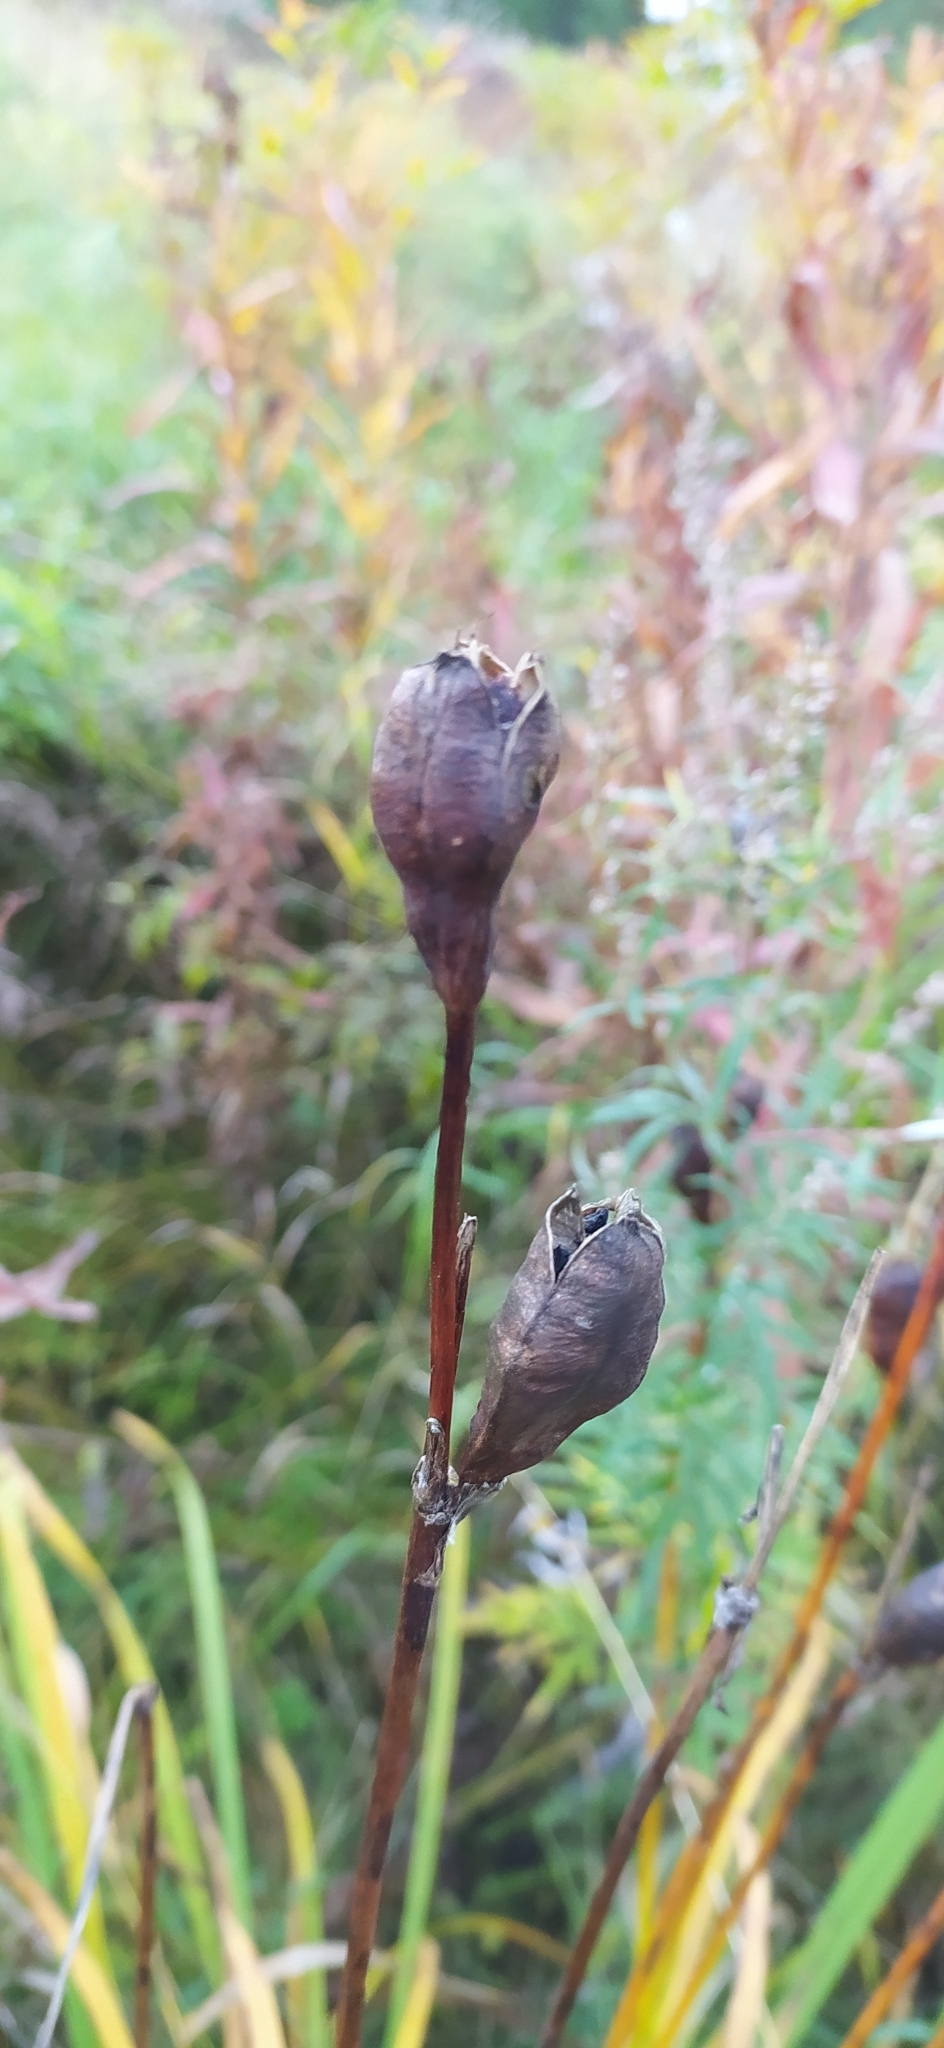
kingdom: Plantae
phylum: Tracheophyta
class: Liliopsida
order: Asparagales
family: Iridaceae
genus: Iris
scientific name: Iris sibirica
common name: Siberian iris
